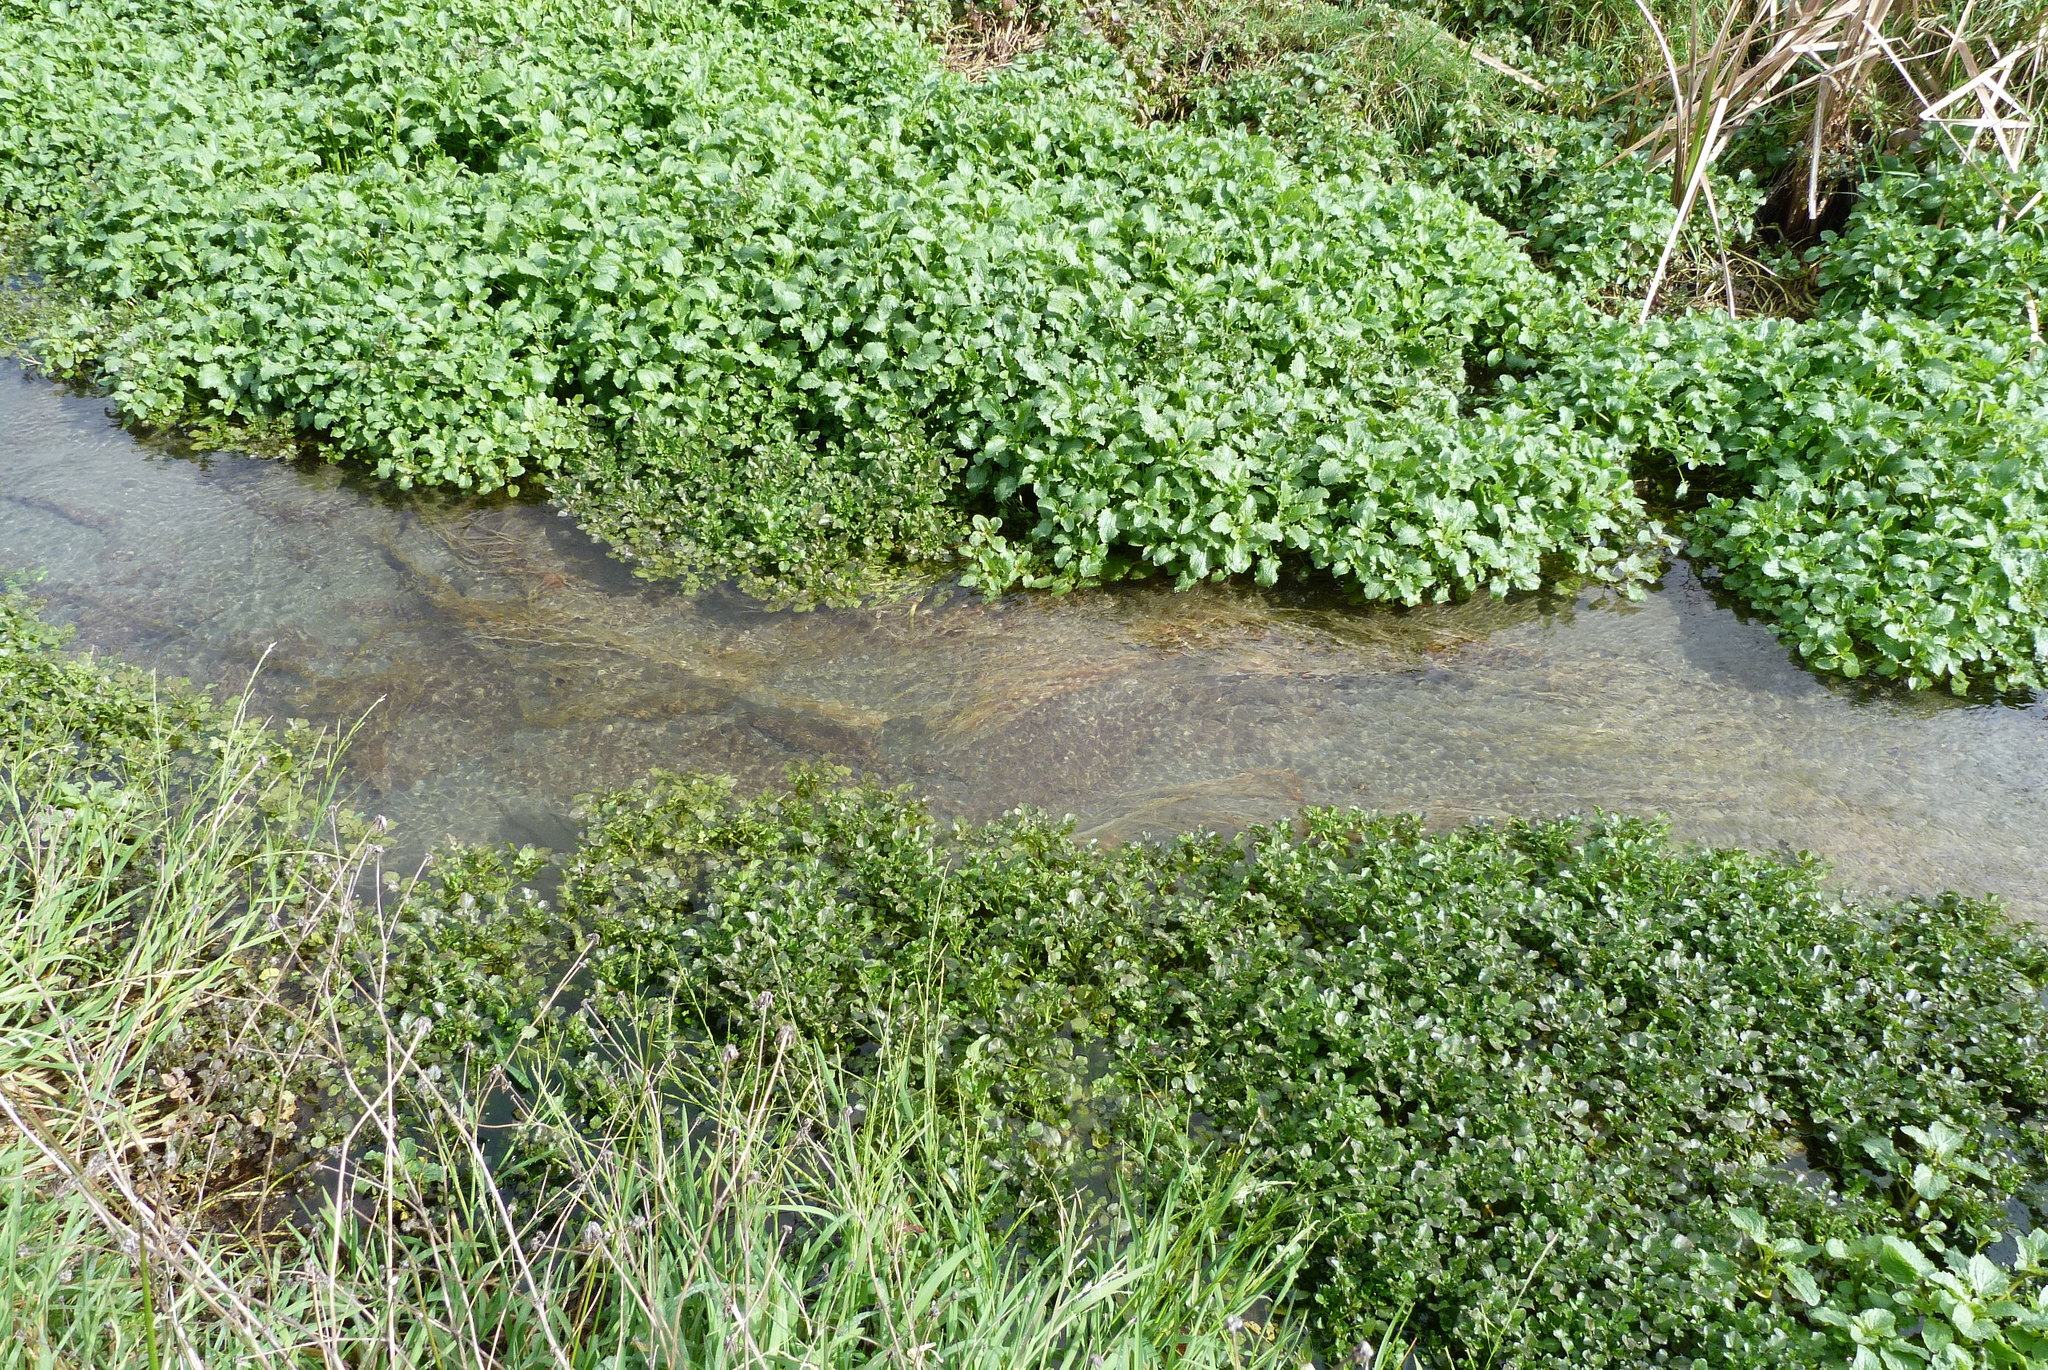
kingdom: Plantae
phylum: Tracheophyta
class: Magnoliopsida
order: Lamiales
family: Phrymaceae
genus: Erythranthe
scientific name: Erythranthe guttata
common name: Monkeyflower
